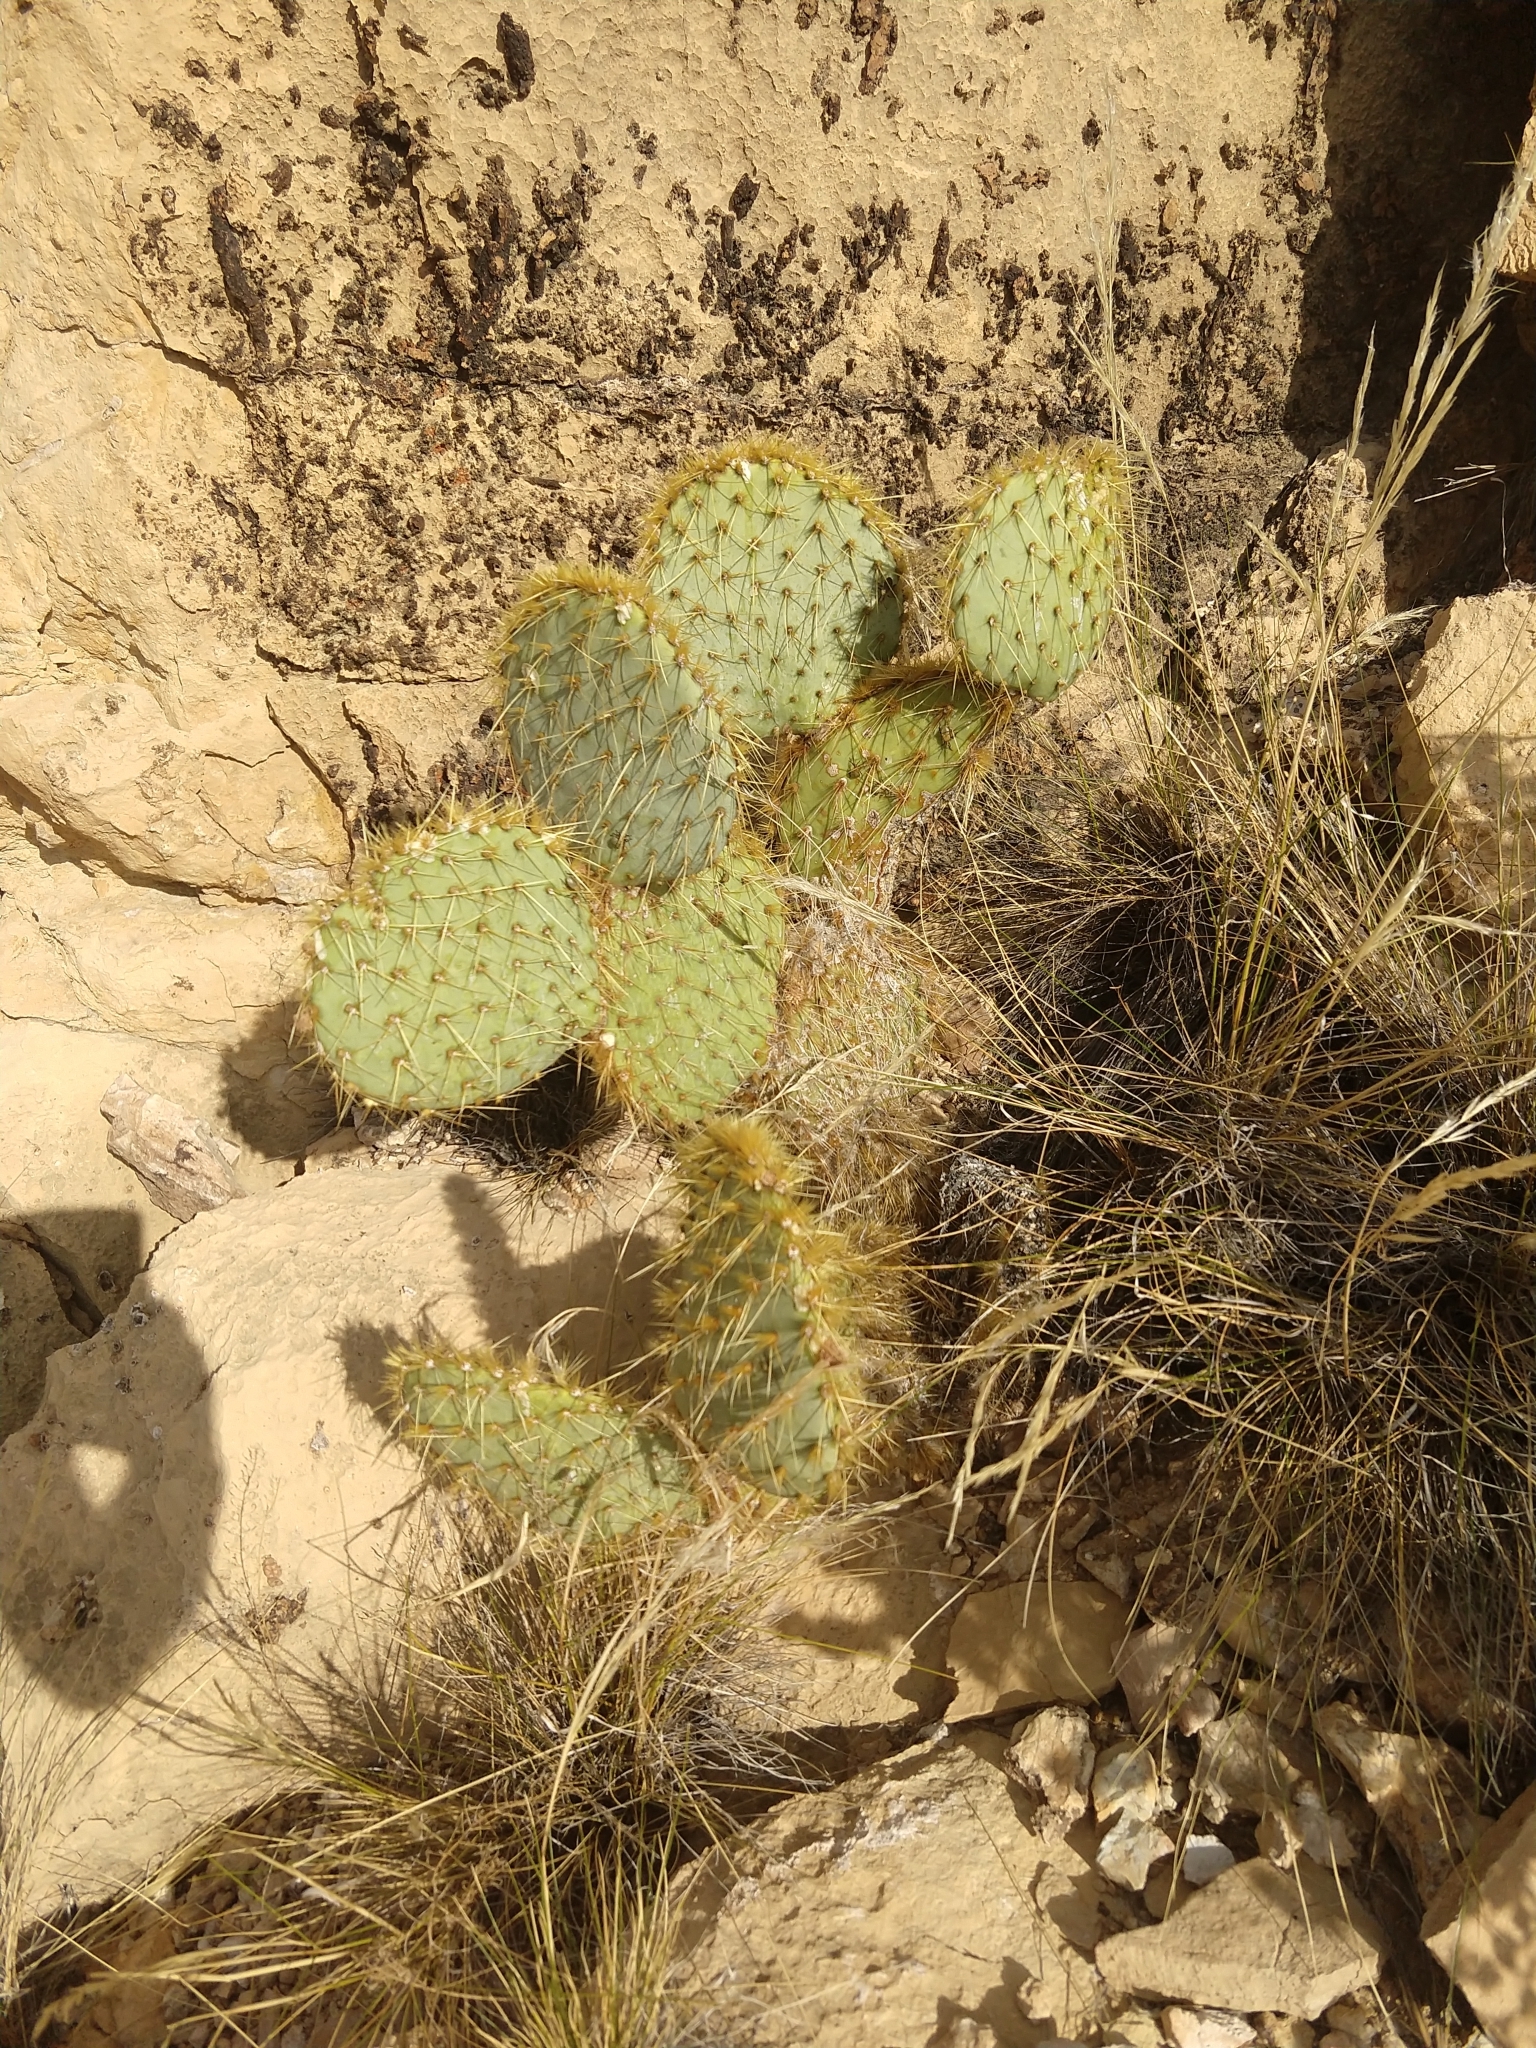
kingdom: Plantae
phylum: Tracheophyta
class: Magnoliopsida
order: Caryophyllales
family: Cactaceae
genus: Opuntia
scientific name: Opuntia chlorotica
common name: Dollar-joint prickly-pear
